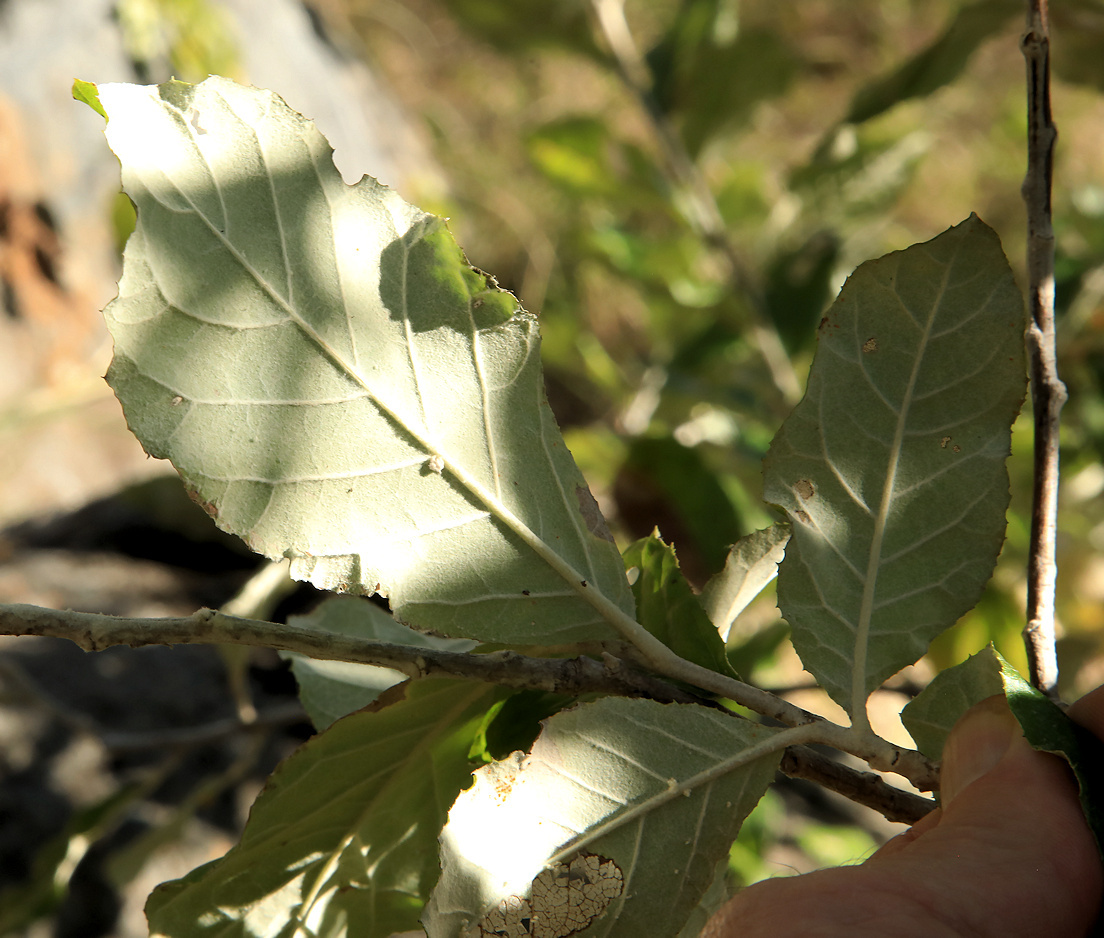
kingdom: Plantae
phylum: Tracheophyta
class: Magnoliopsida
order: Asterales
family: Asteraceae
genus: Brachylaena
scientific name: Brachylaena discolor
